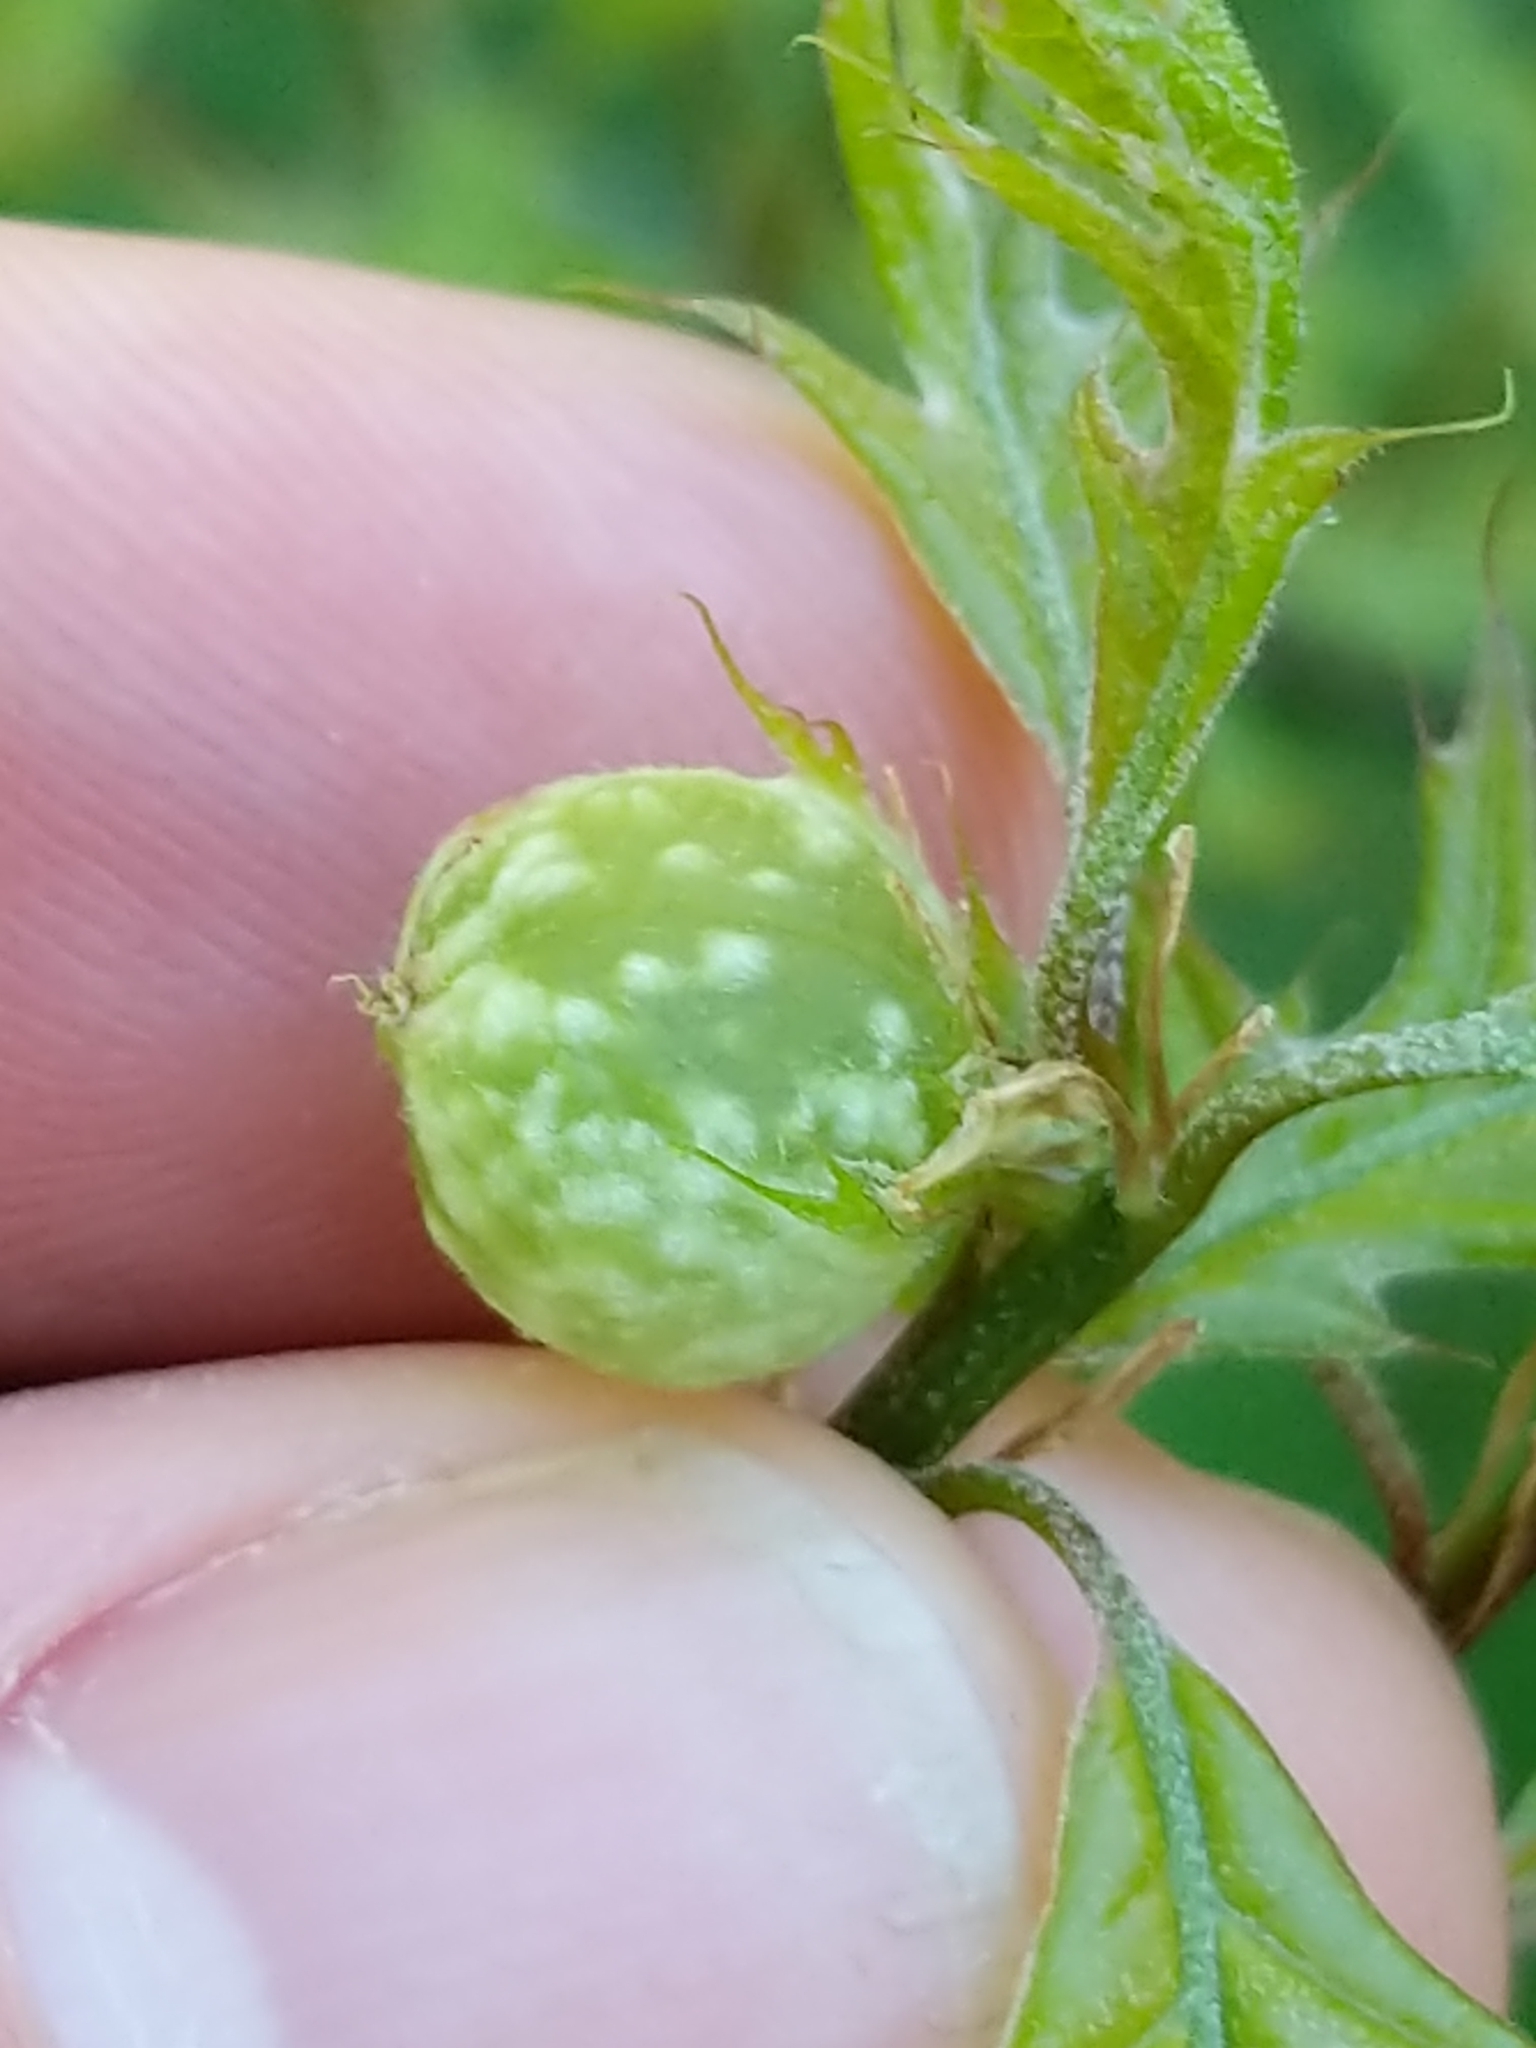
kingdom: Animalia
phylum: Arthropoda
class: Insecta
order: Hymenoptera
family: Cynipidae
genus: Dryocosmus
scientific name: Dryocosmus quercuspalustris
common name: Succulent oak gall wasp
